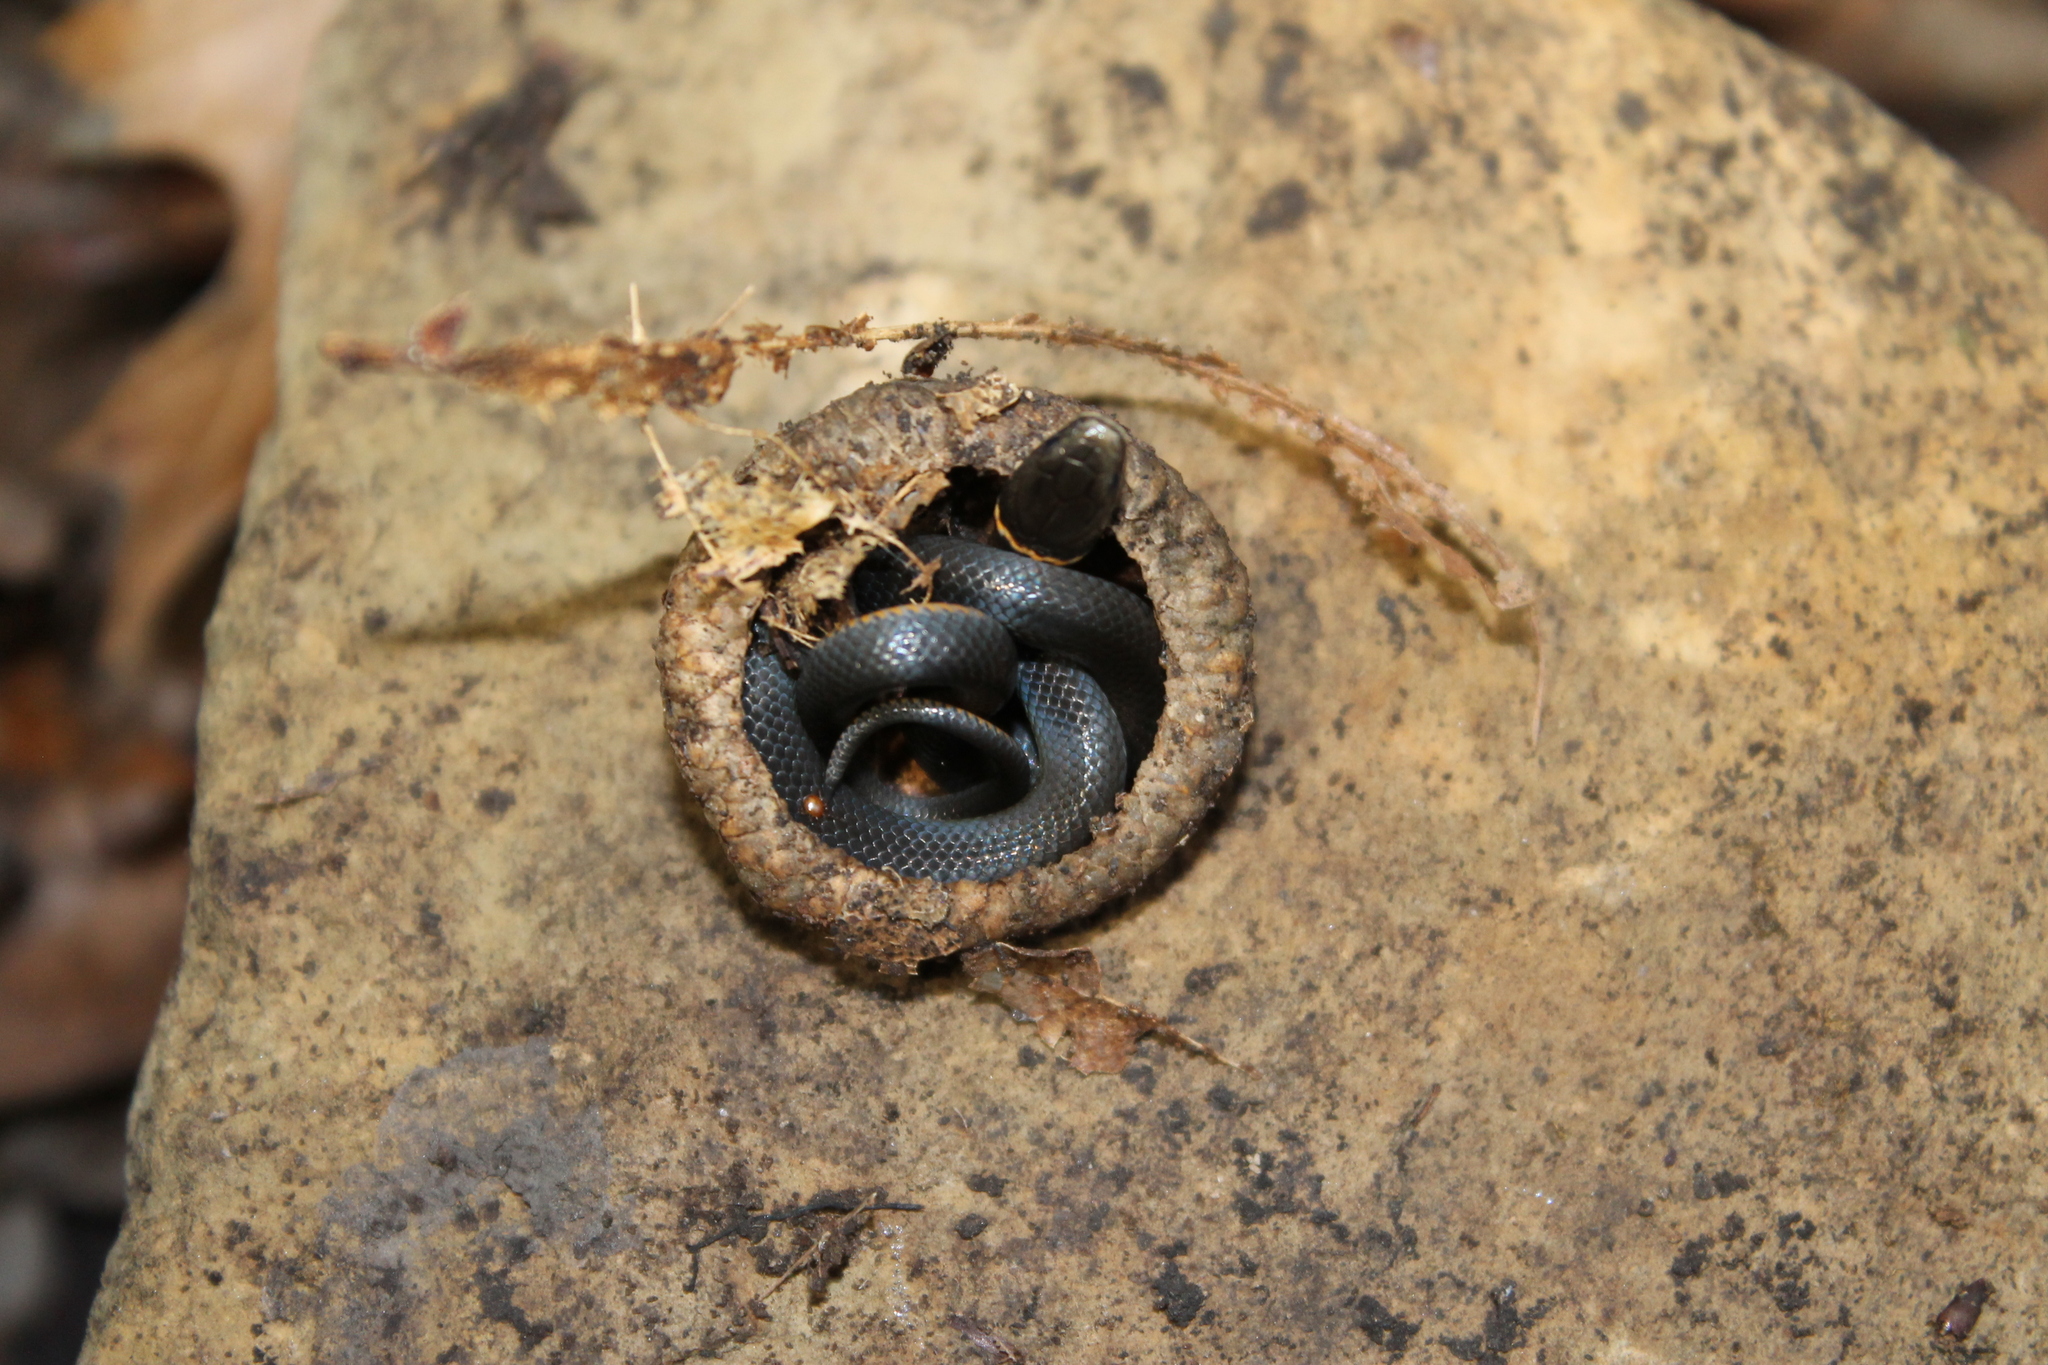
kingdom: Animalia
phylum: Chordata
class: Squamata
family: Colubridae
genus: Diadophis
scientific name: Diadophis punctatus
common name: Ringneck snake
